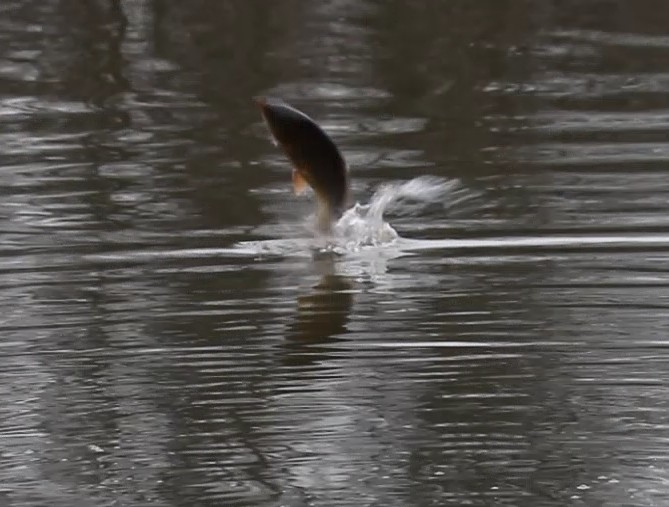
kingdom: Animalia
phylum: Chordata
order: Cypriniformes
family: Cyprinidae
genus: Cyprinus
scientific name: Cyprinus carpio
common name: Common carp
